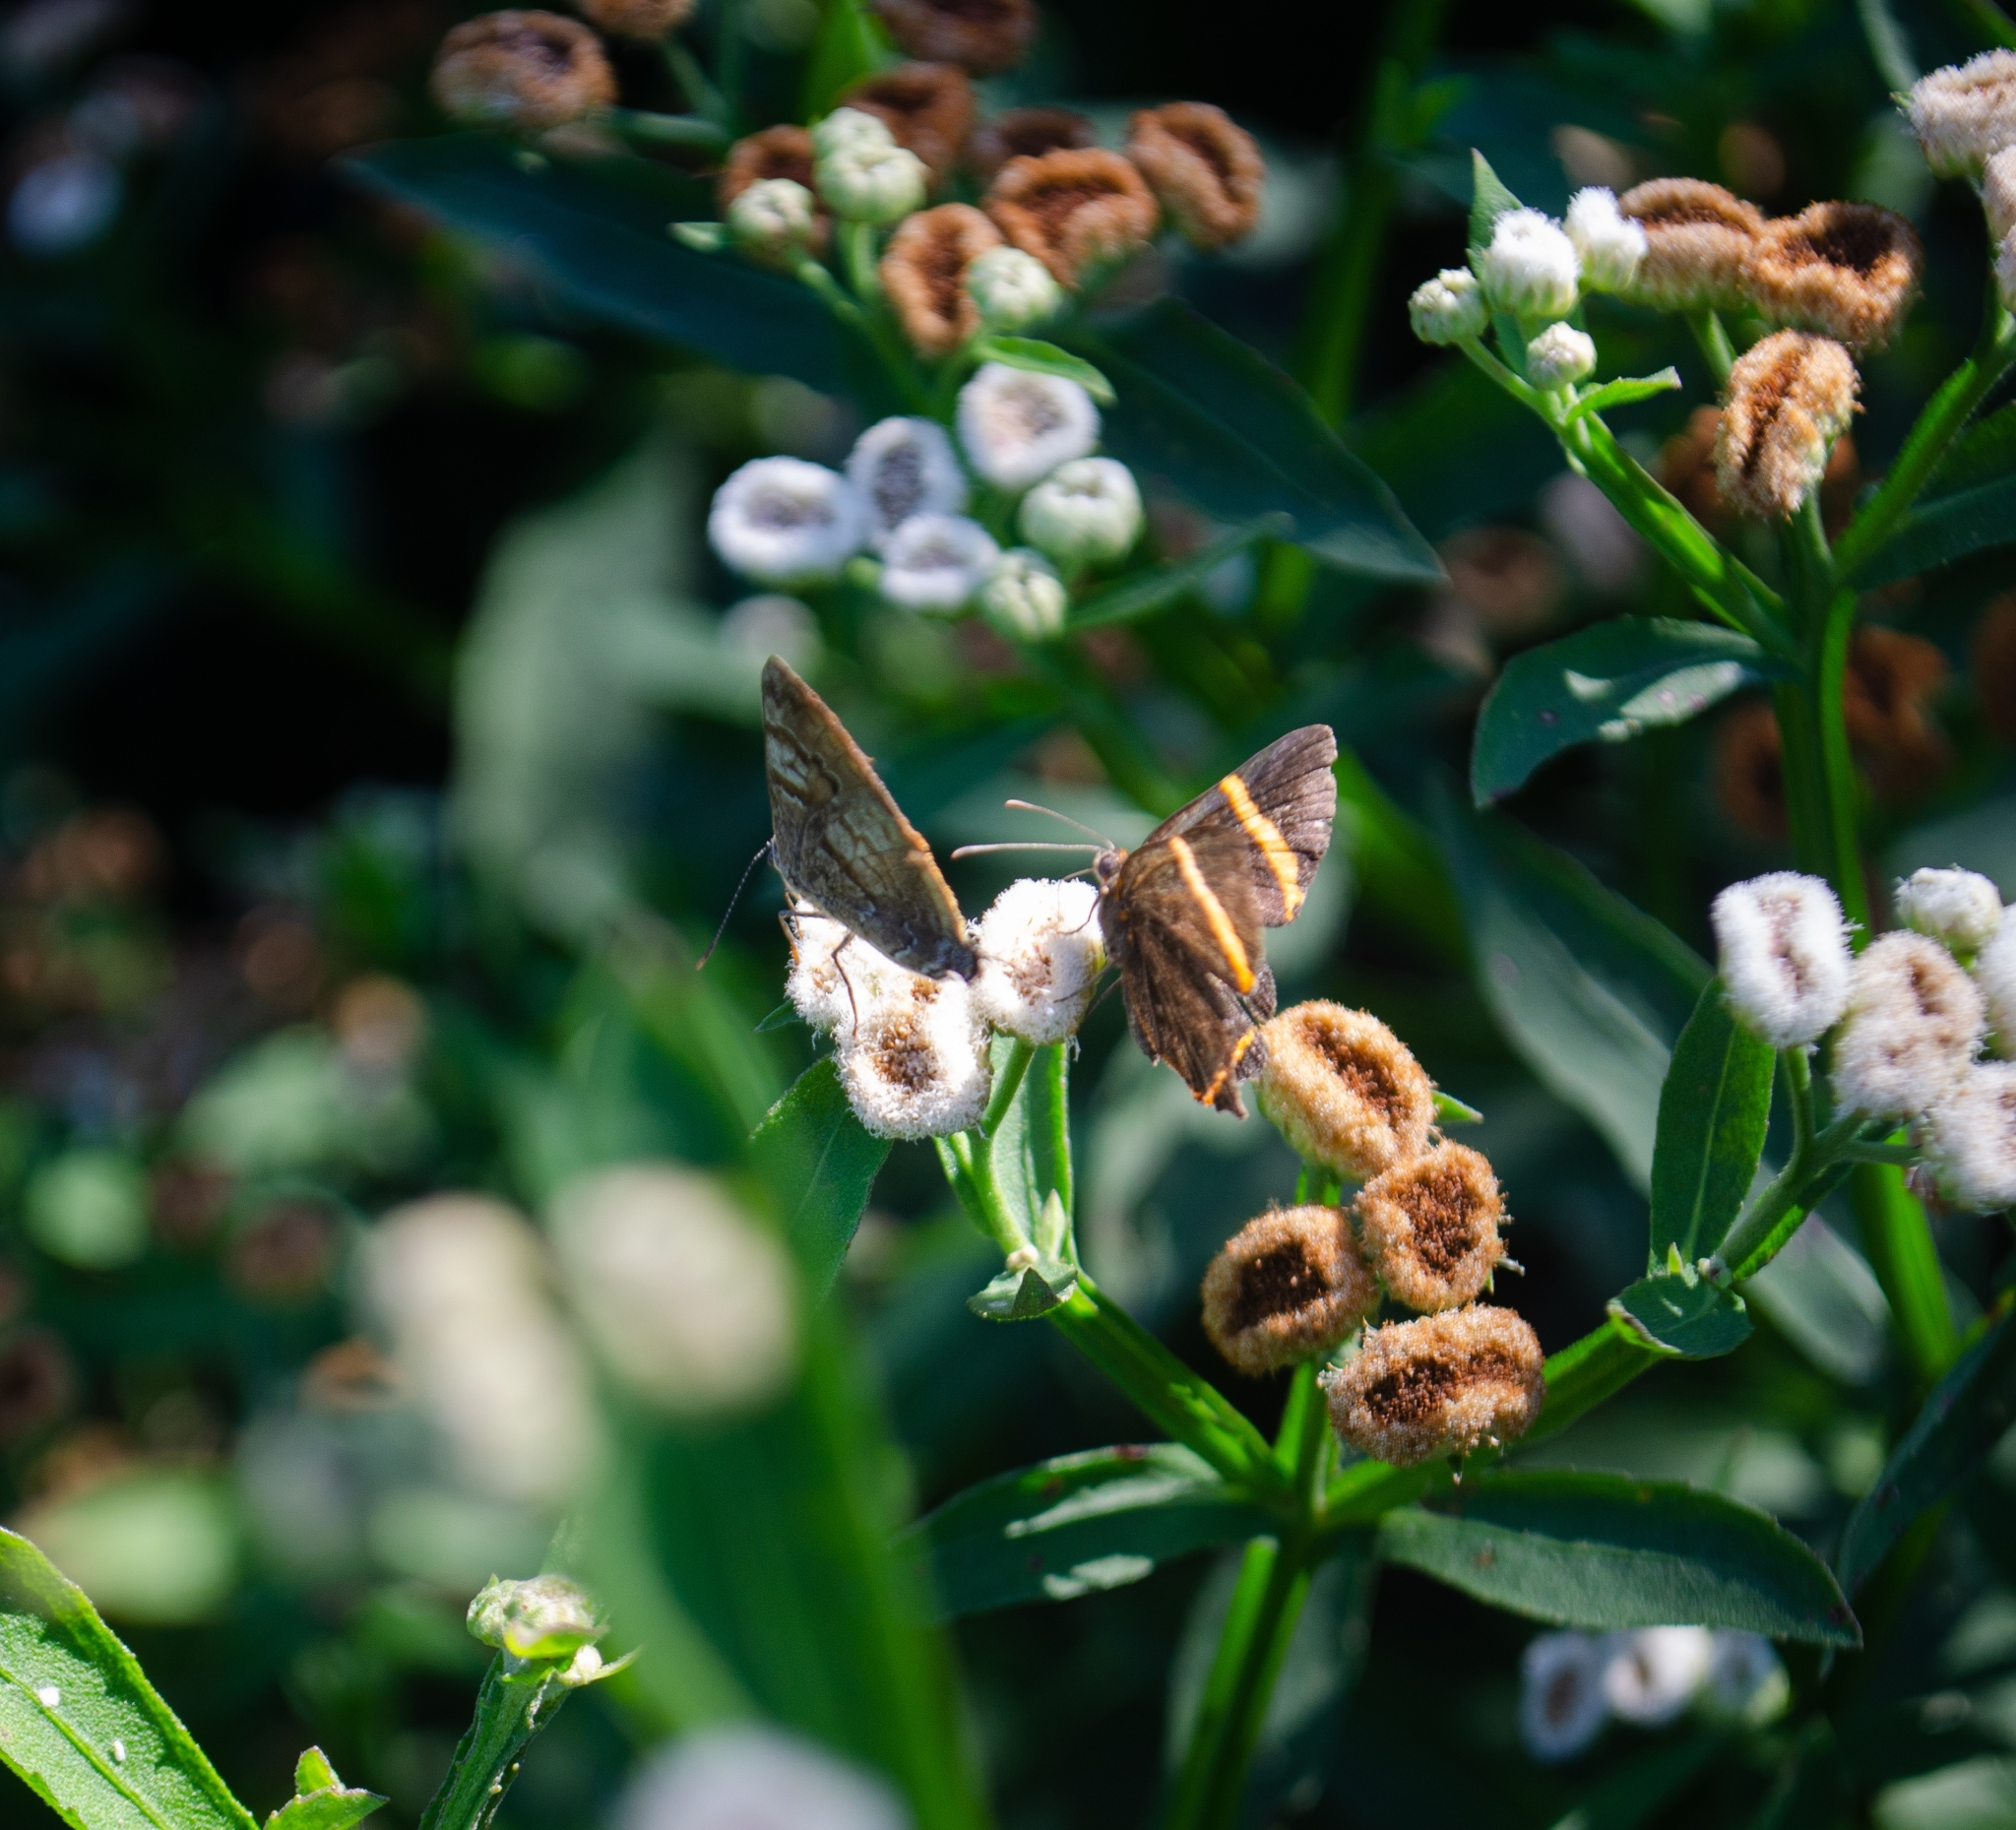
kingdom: Animalia
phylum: Arthropoda
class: Insecta
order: Lepidoptera
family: Riodinidae
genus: Riodina
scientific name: Riodina lysippoides
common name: Little dancer metalmark
